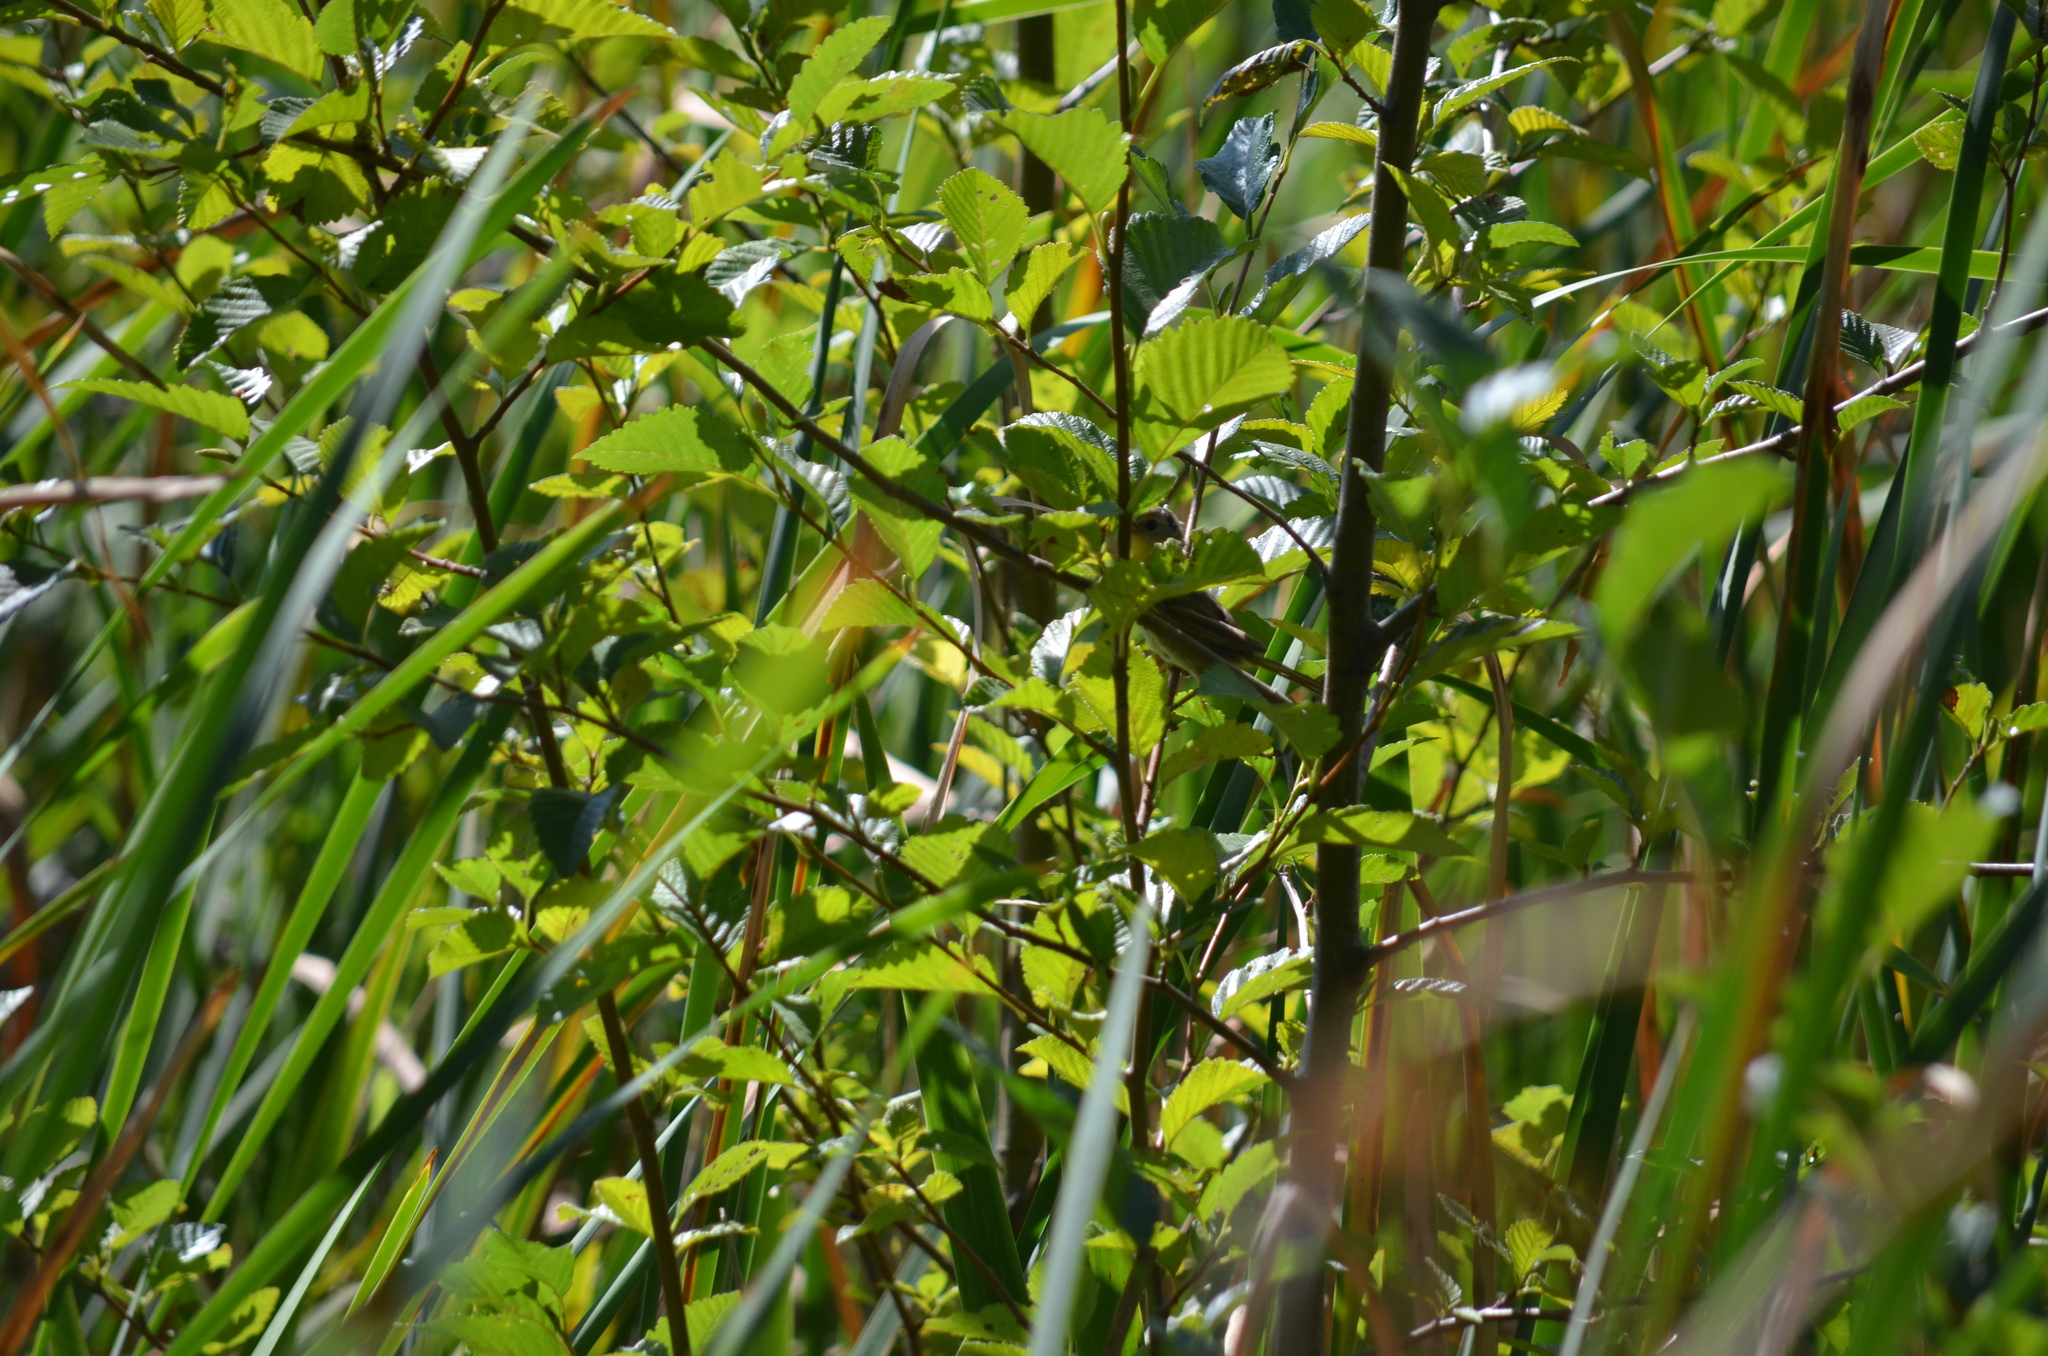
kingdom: Animalia
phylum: Chordata
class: Aves
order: Passeriformes
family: Parulidae
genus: Geothlypis
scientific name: Geothlypis trichas
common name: Common yellowthroat
